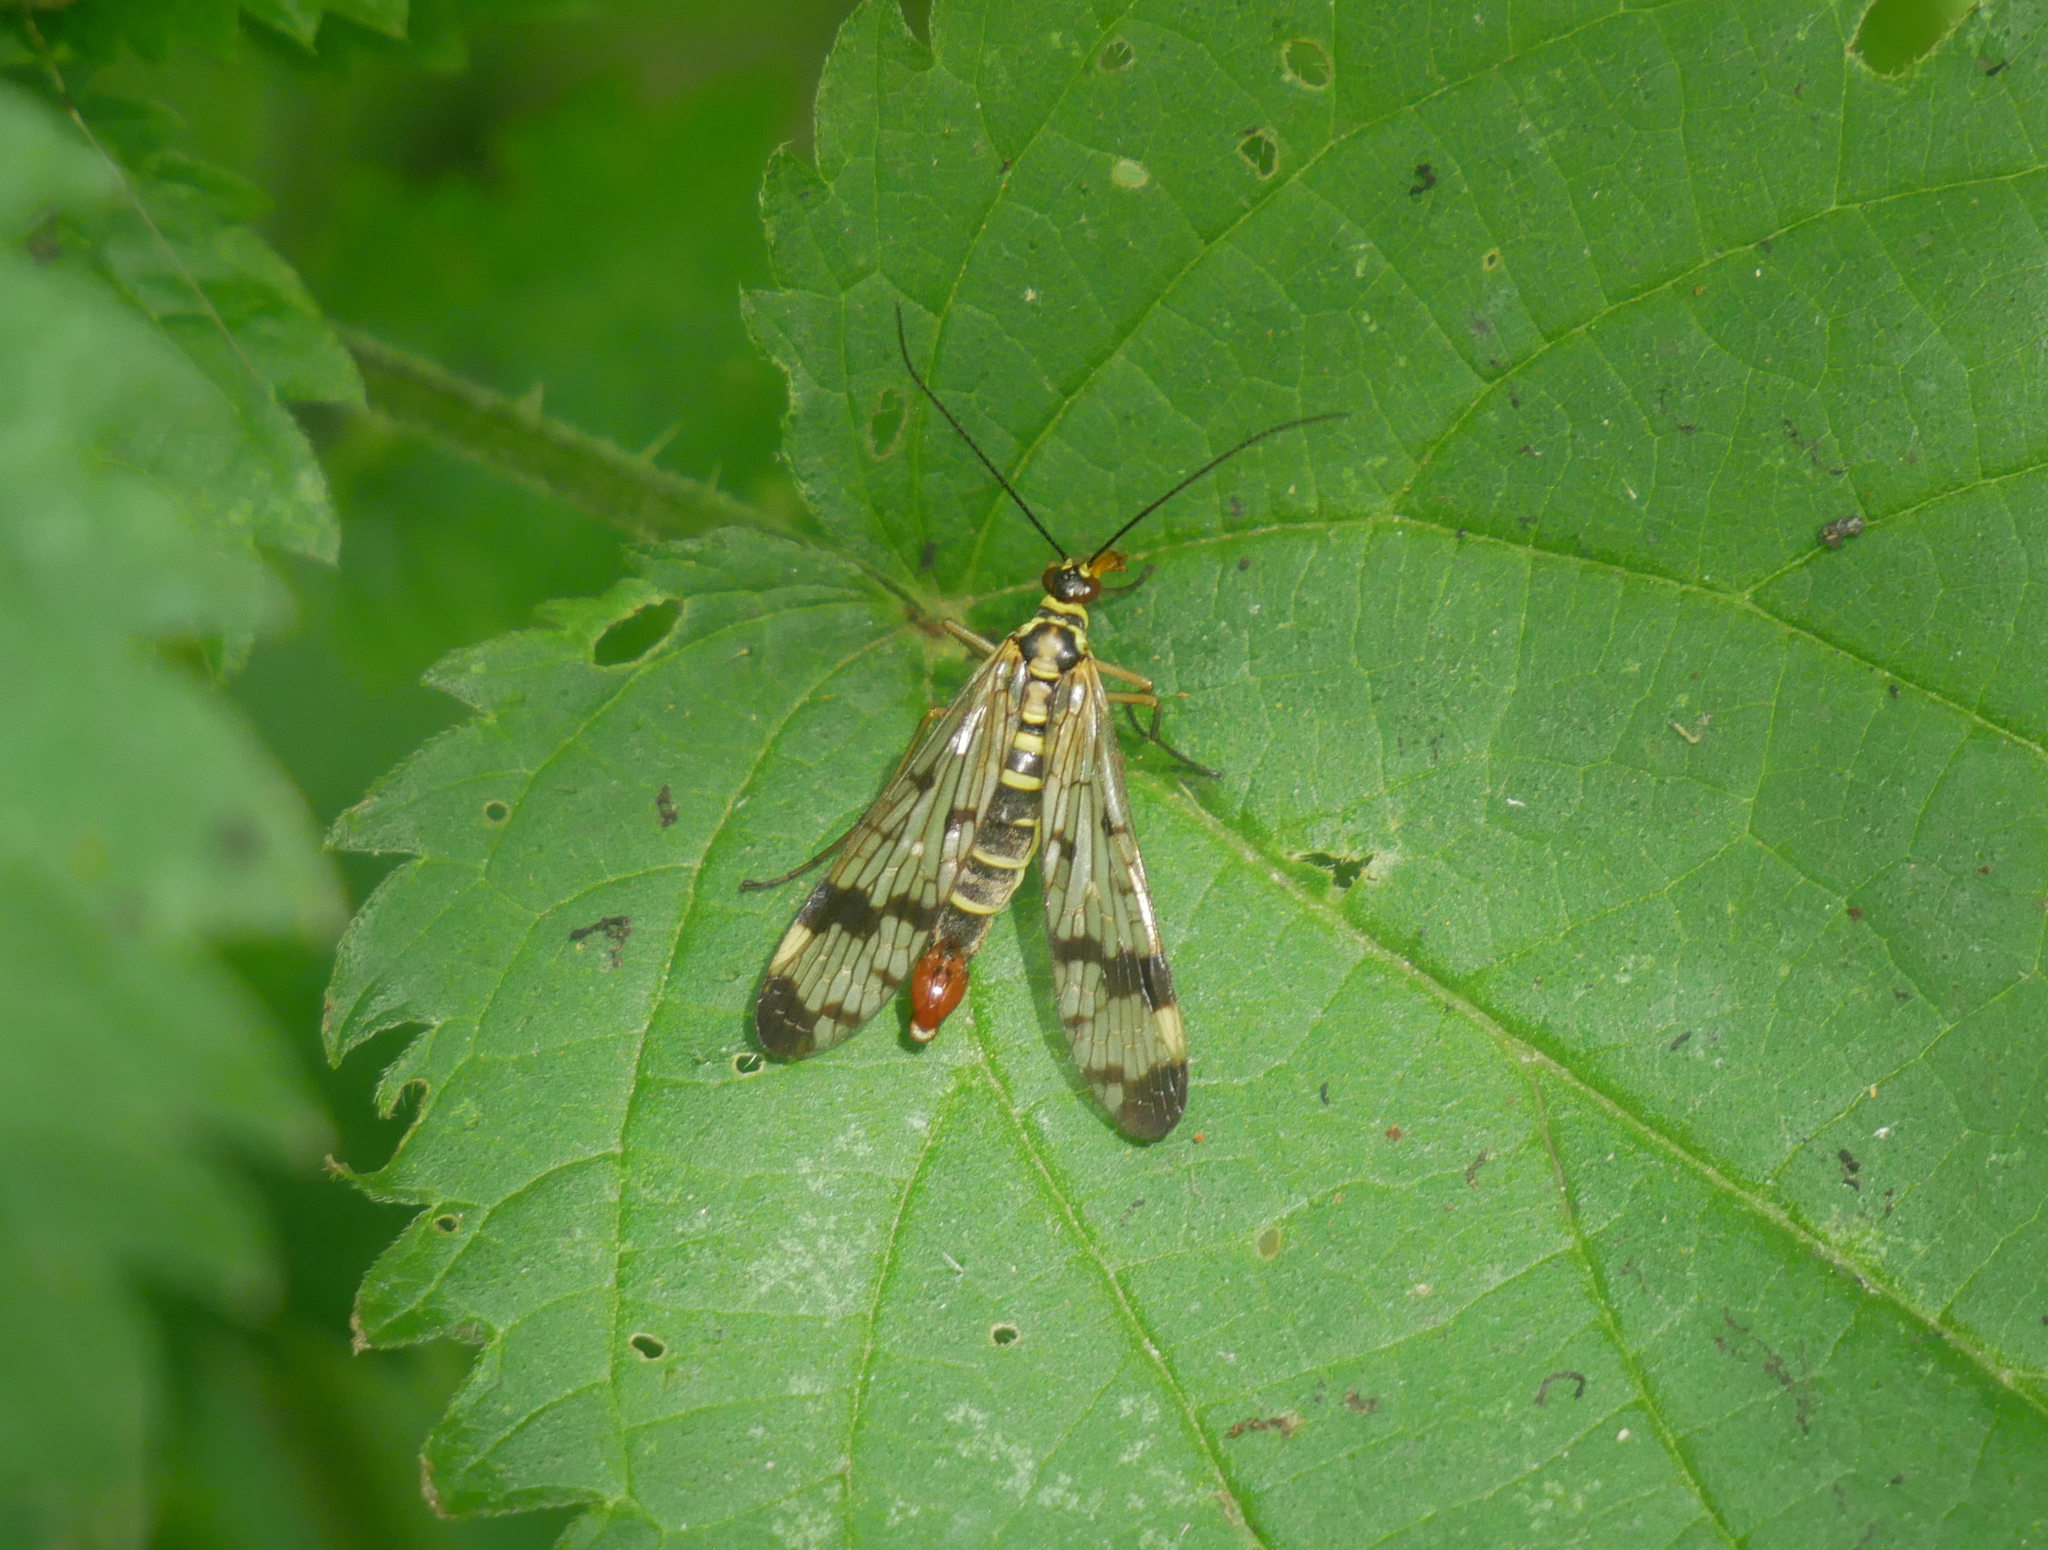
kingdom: Animalia
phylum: Arthropoda
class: Insecta
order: Mecoptera
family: Panorpidae
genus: Panorpa
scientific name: Panorpa communis
